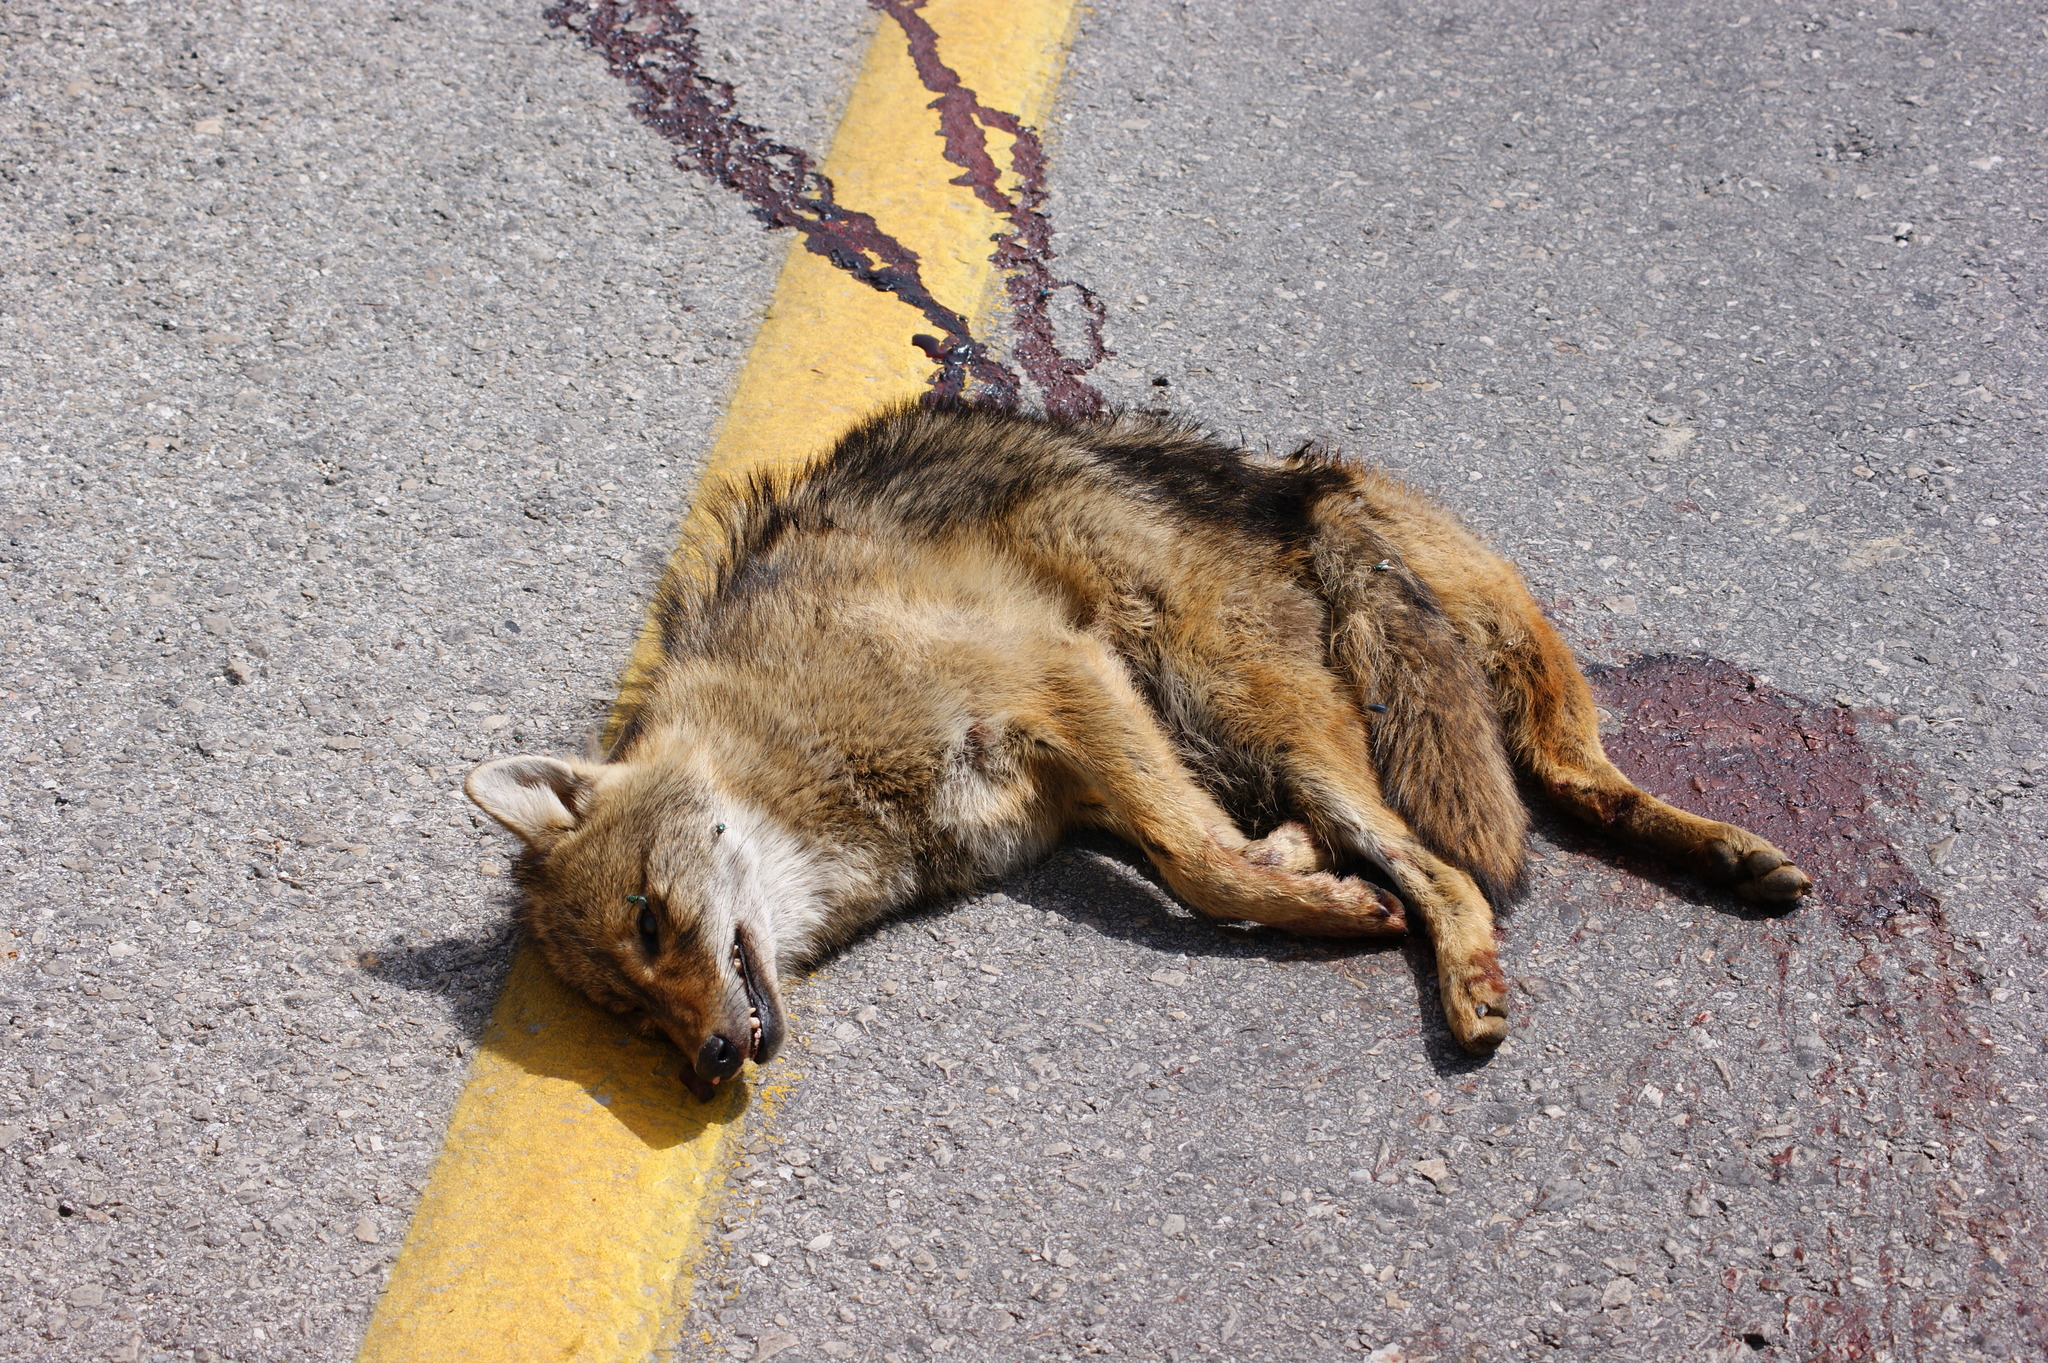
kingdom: Animalia
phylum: Chordata
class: Mammalia
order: Carnivora
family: Canidae
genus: Canis
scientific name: Canis aureus
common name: Golden jackal
